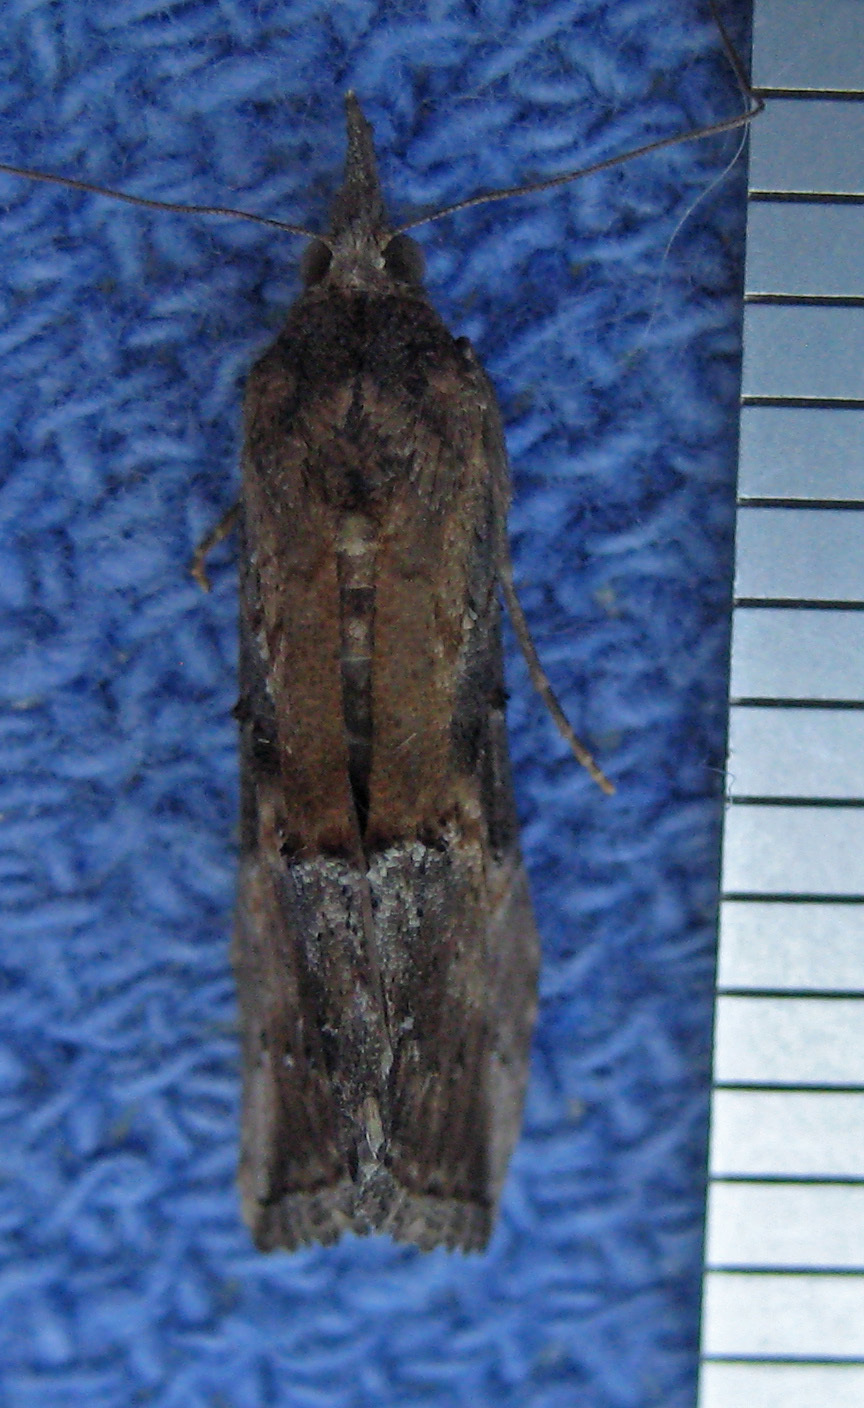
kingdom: Animalia
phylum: Arthropoda
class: Insecta
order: Lepidoptera
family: Erebidae
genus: Hypena
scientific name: Hypena scabra
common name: Green cloverworm
